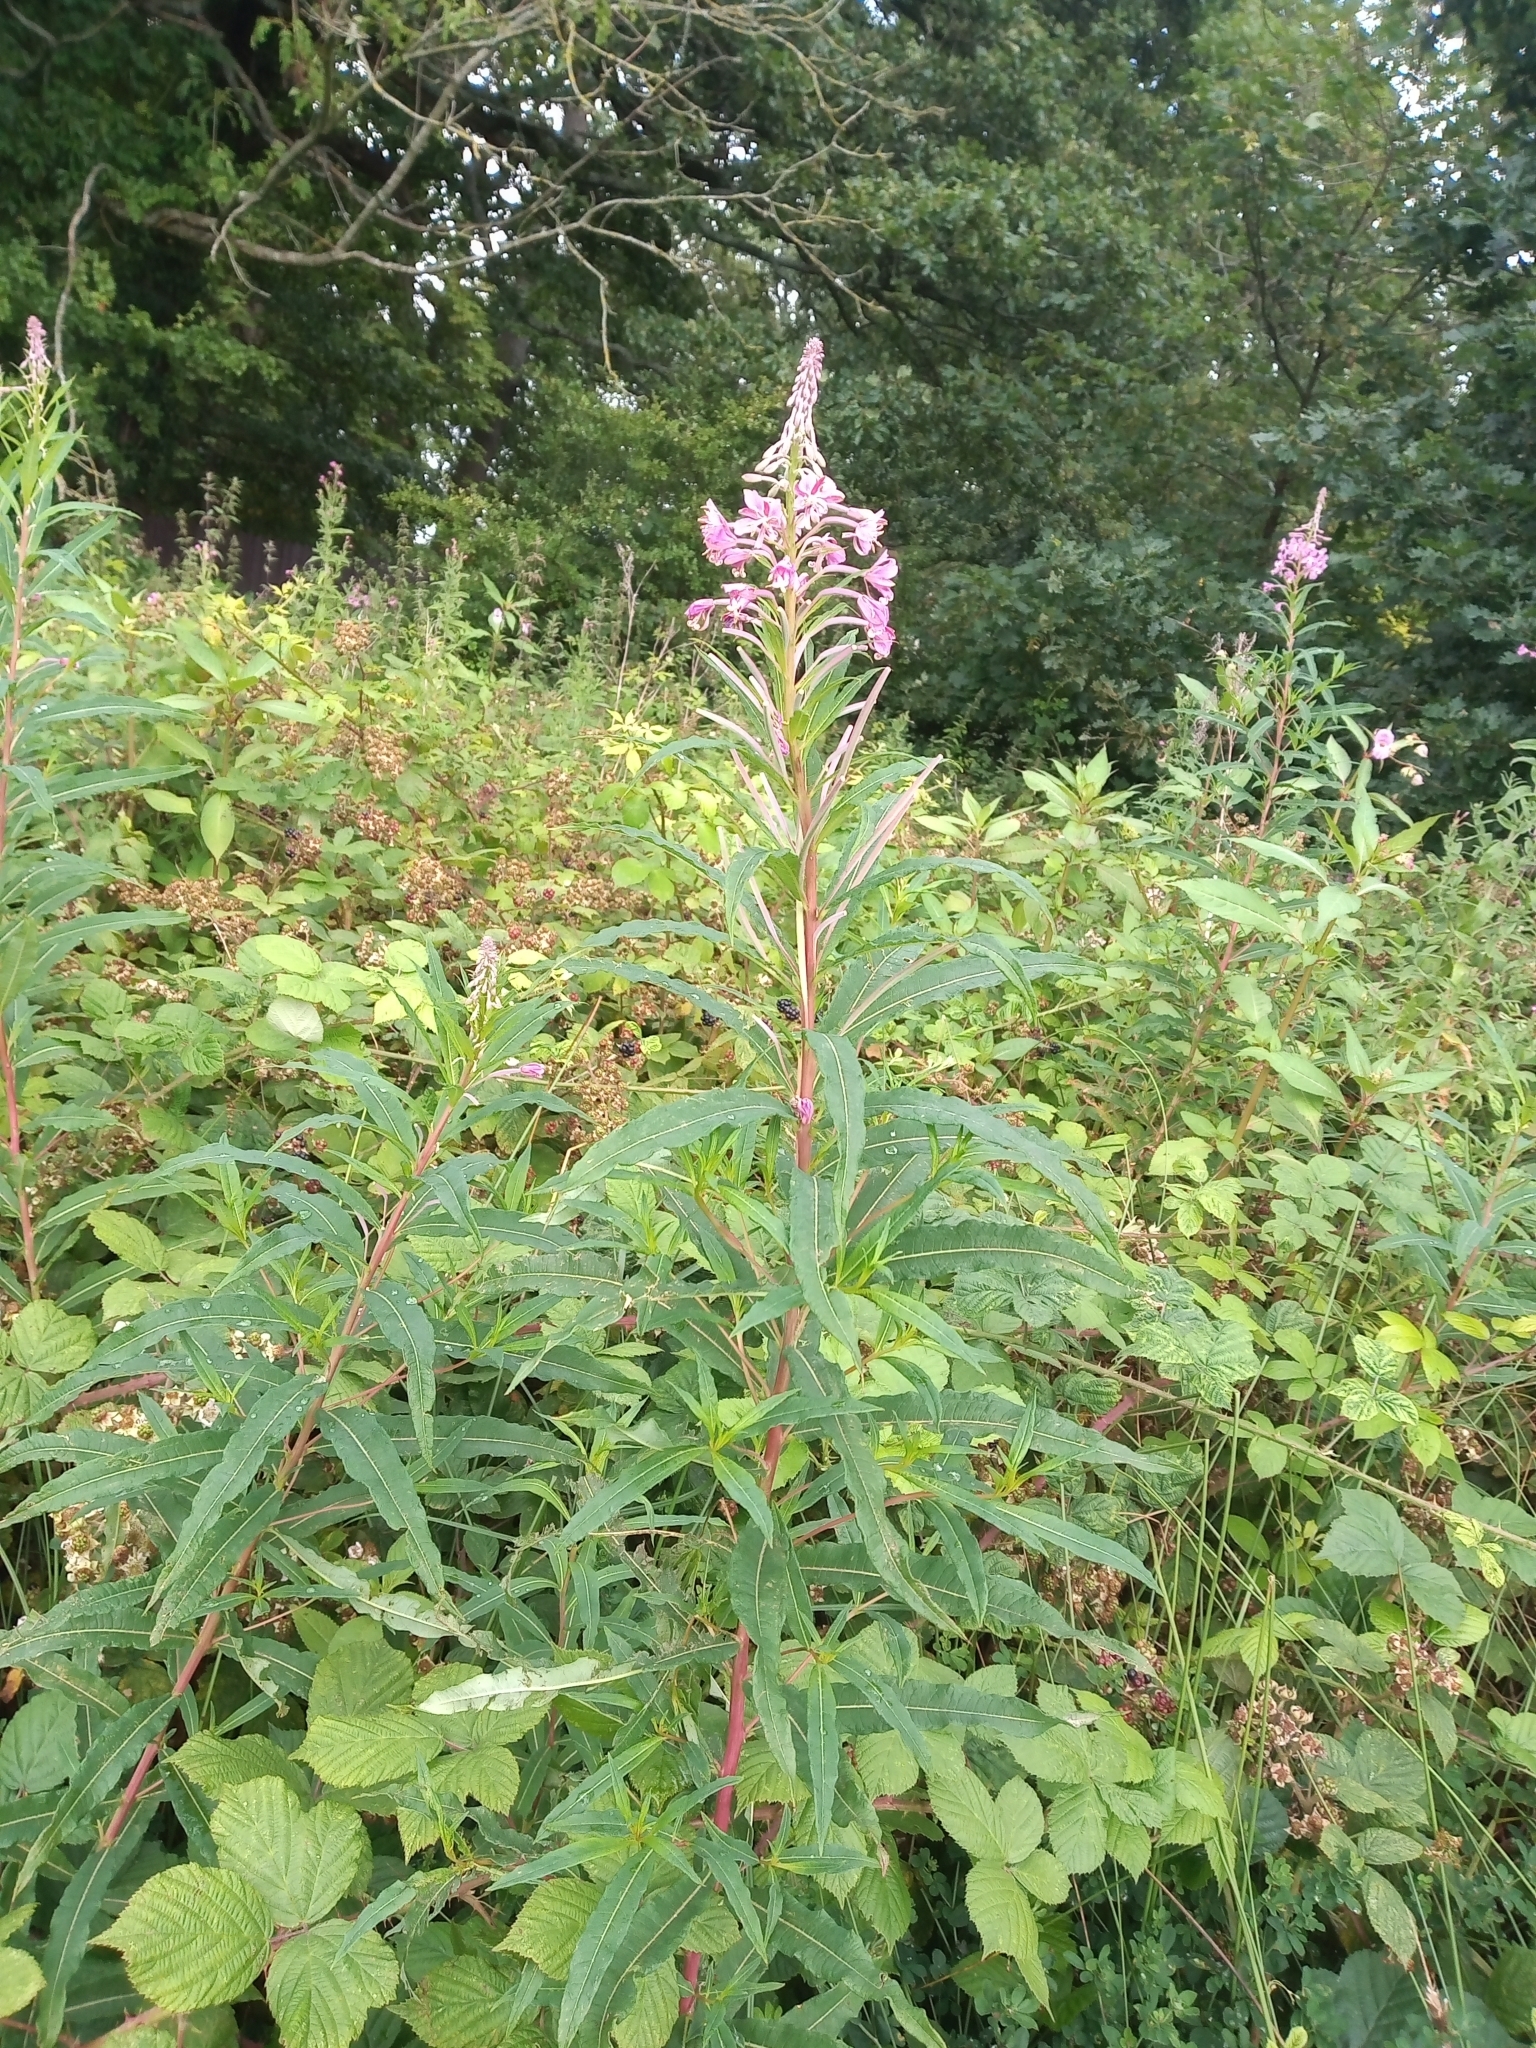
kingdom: Plantae
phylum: Tracheophyta
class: Magnoliopsida
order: Myrtales
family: Onagraceae
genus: Chamaenerion
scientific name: Chamaenerion angustifolium
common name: Fireweed
